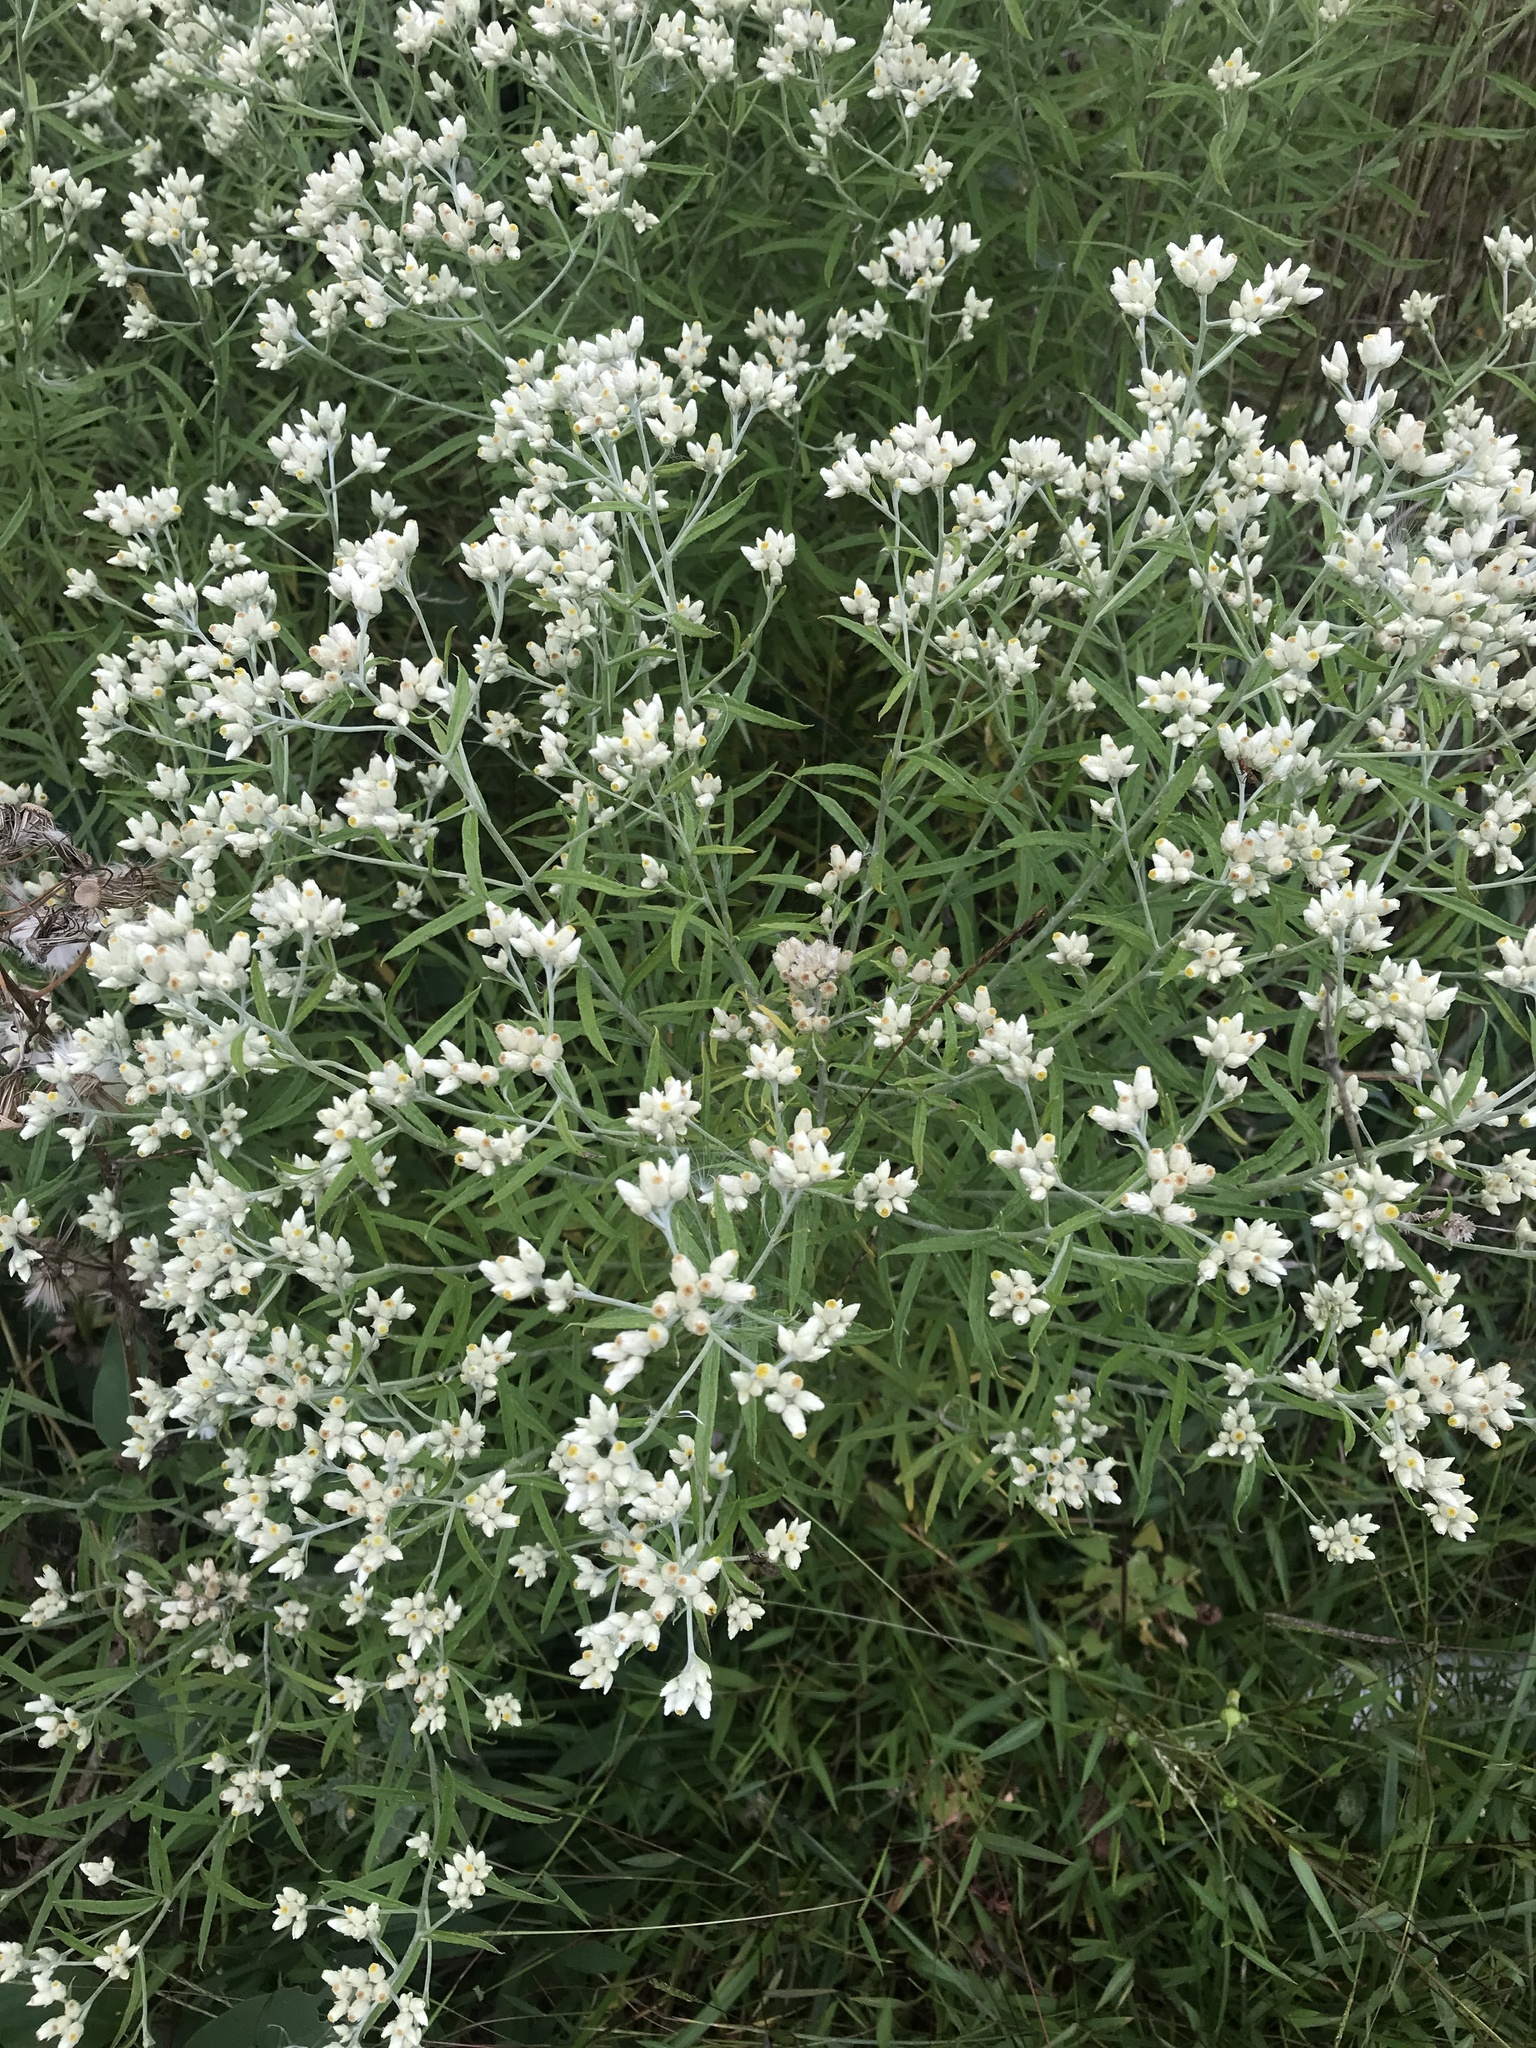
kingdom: Plantae
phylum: Tracheophyta
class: Magnoliopsida
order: Asterales
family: Asteraceae
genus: Pseudognaphalium
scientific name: Pseudognaphalium obtusifolium
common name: Eastern rabbit-tobacco
